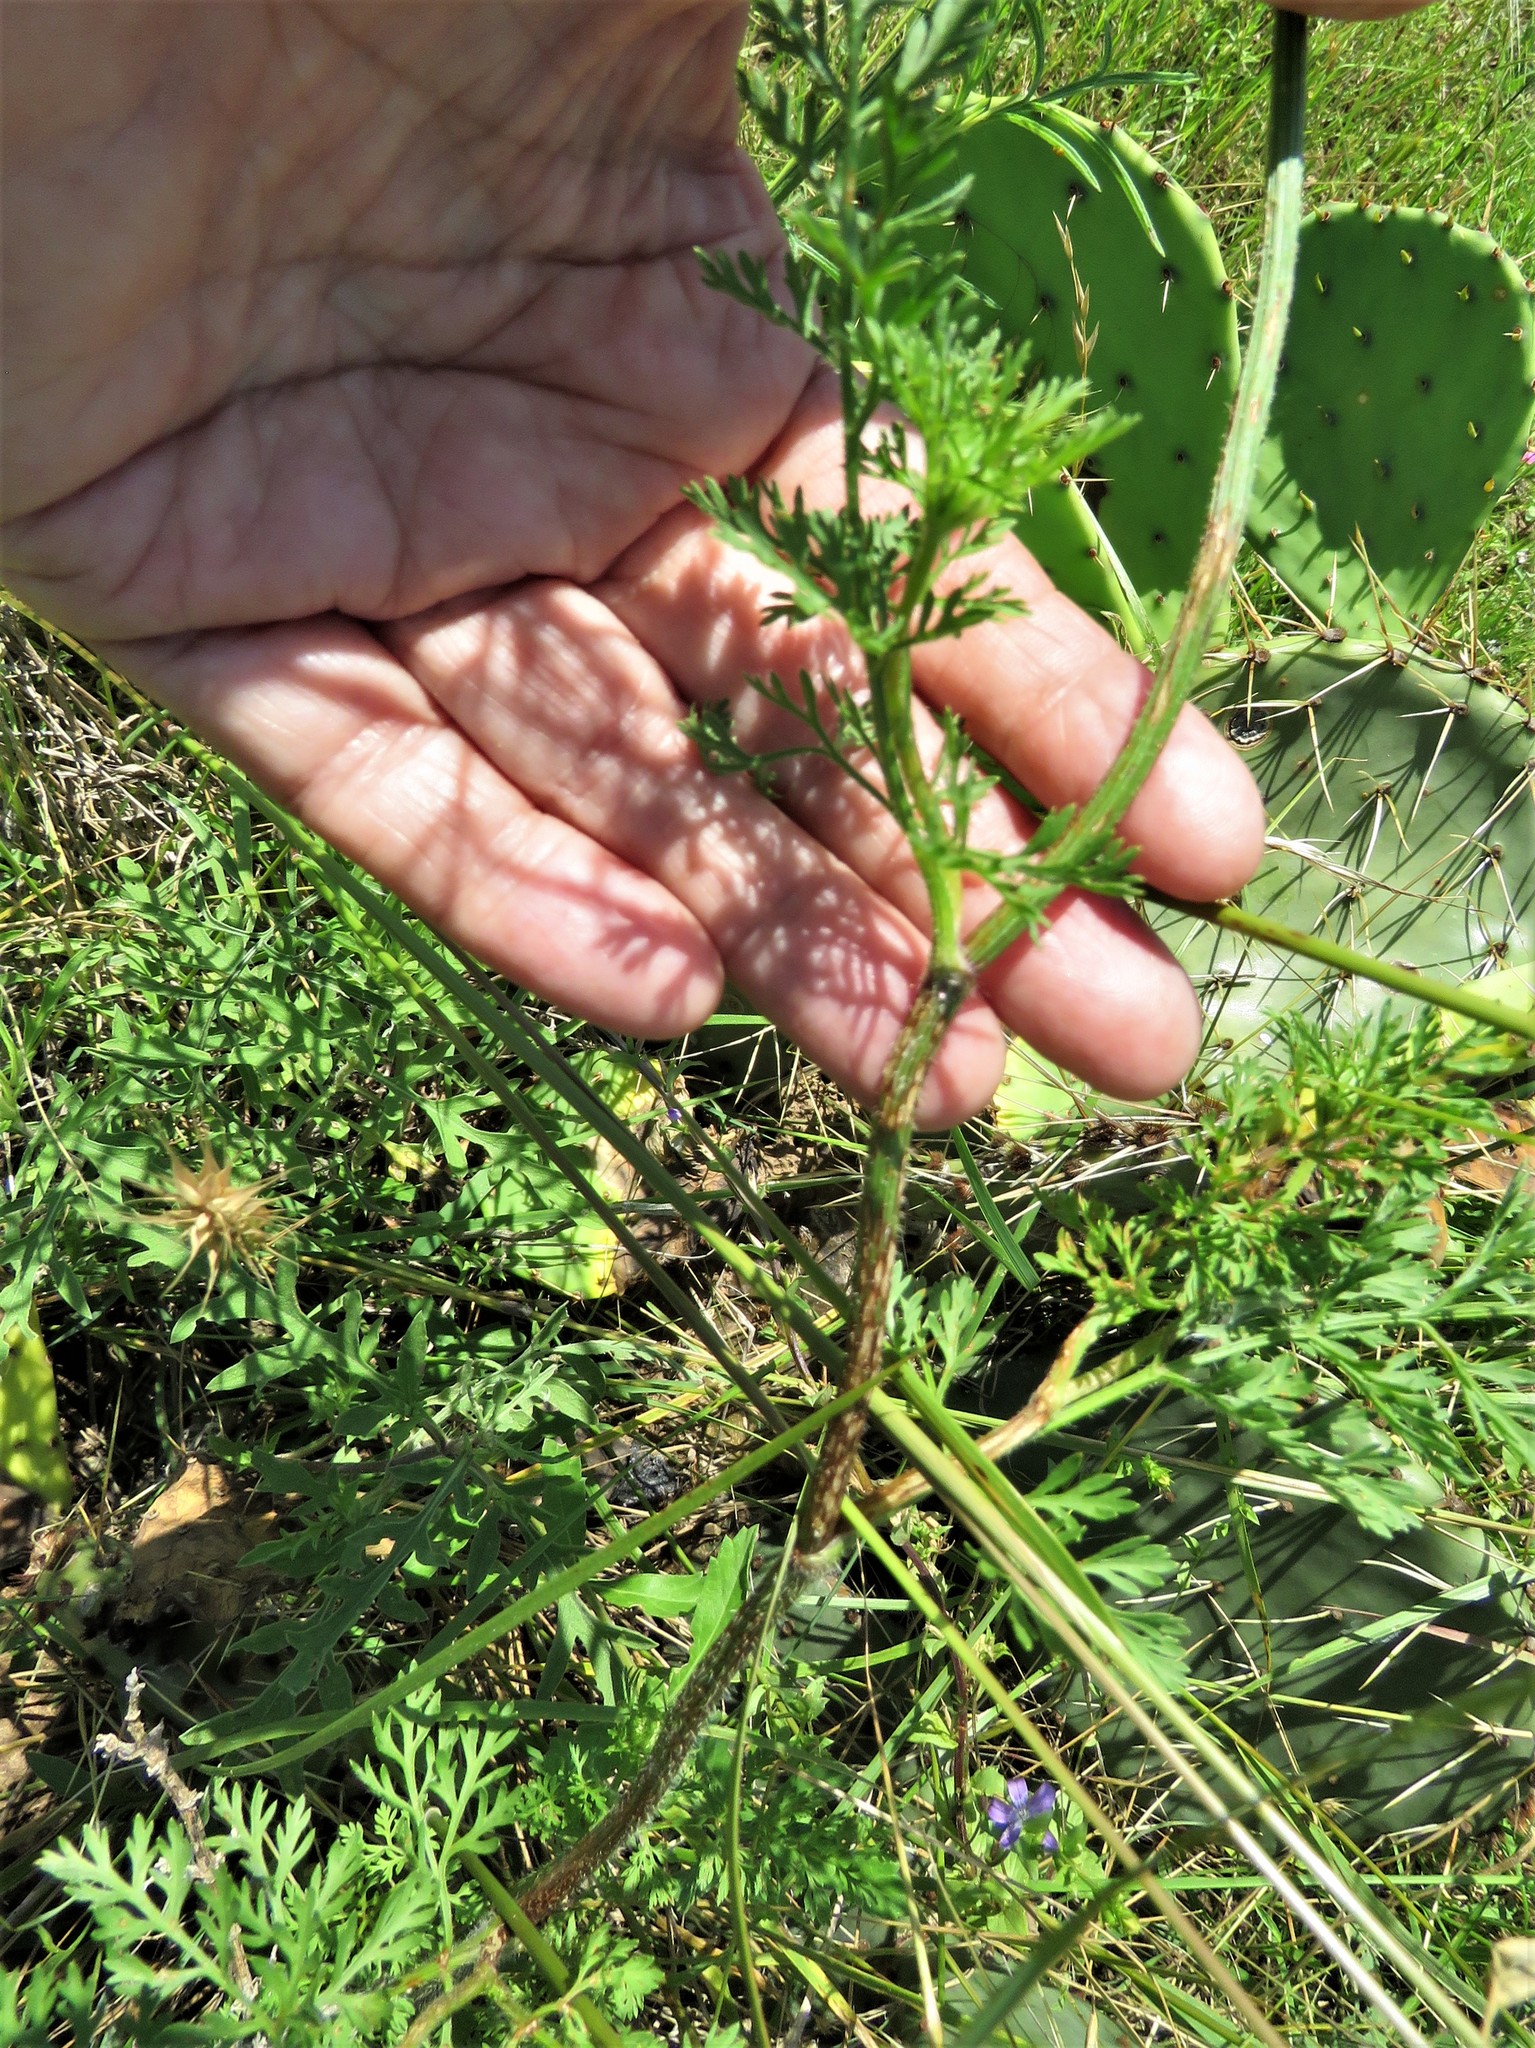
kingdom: Plantae
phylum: Tracheophyta
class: Magnoliopsida
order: Apiales
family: Apiaceae
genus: Daucus
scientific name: Daucus pusillus
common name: Southwest wild carrot
